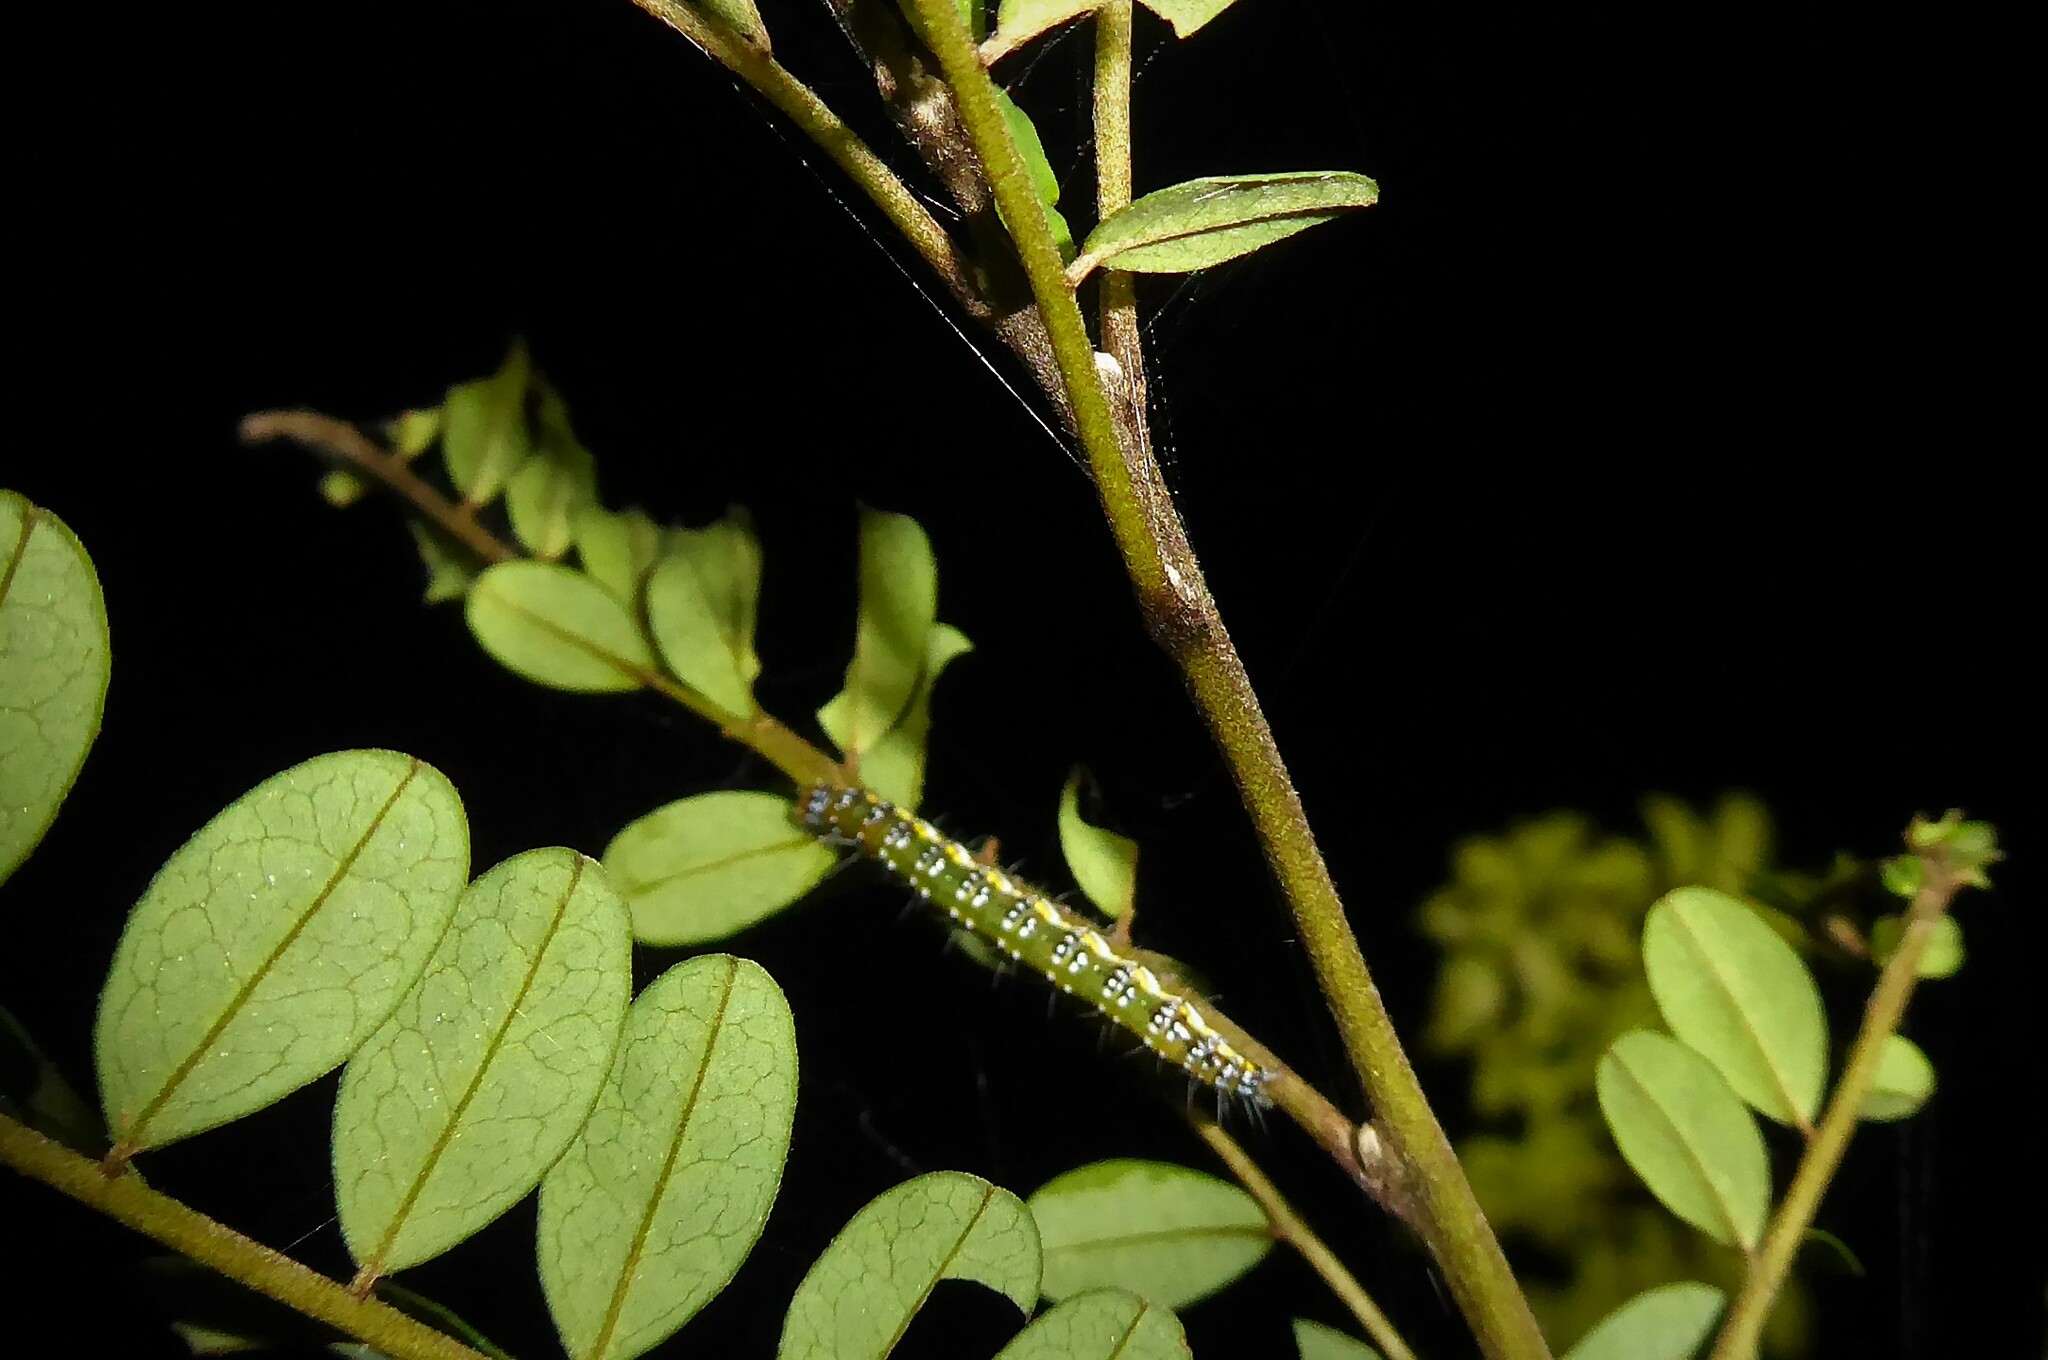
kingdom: Animalia
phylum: Arthropoda
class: Insecta
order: Lepidoptera
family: Crambidae
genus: Uresiphita
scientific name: Uresiphita
